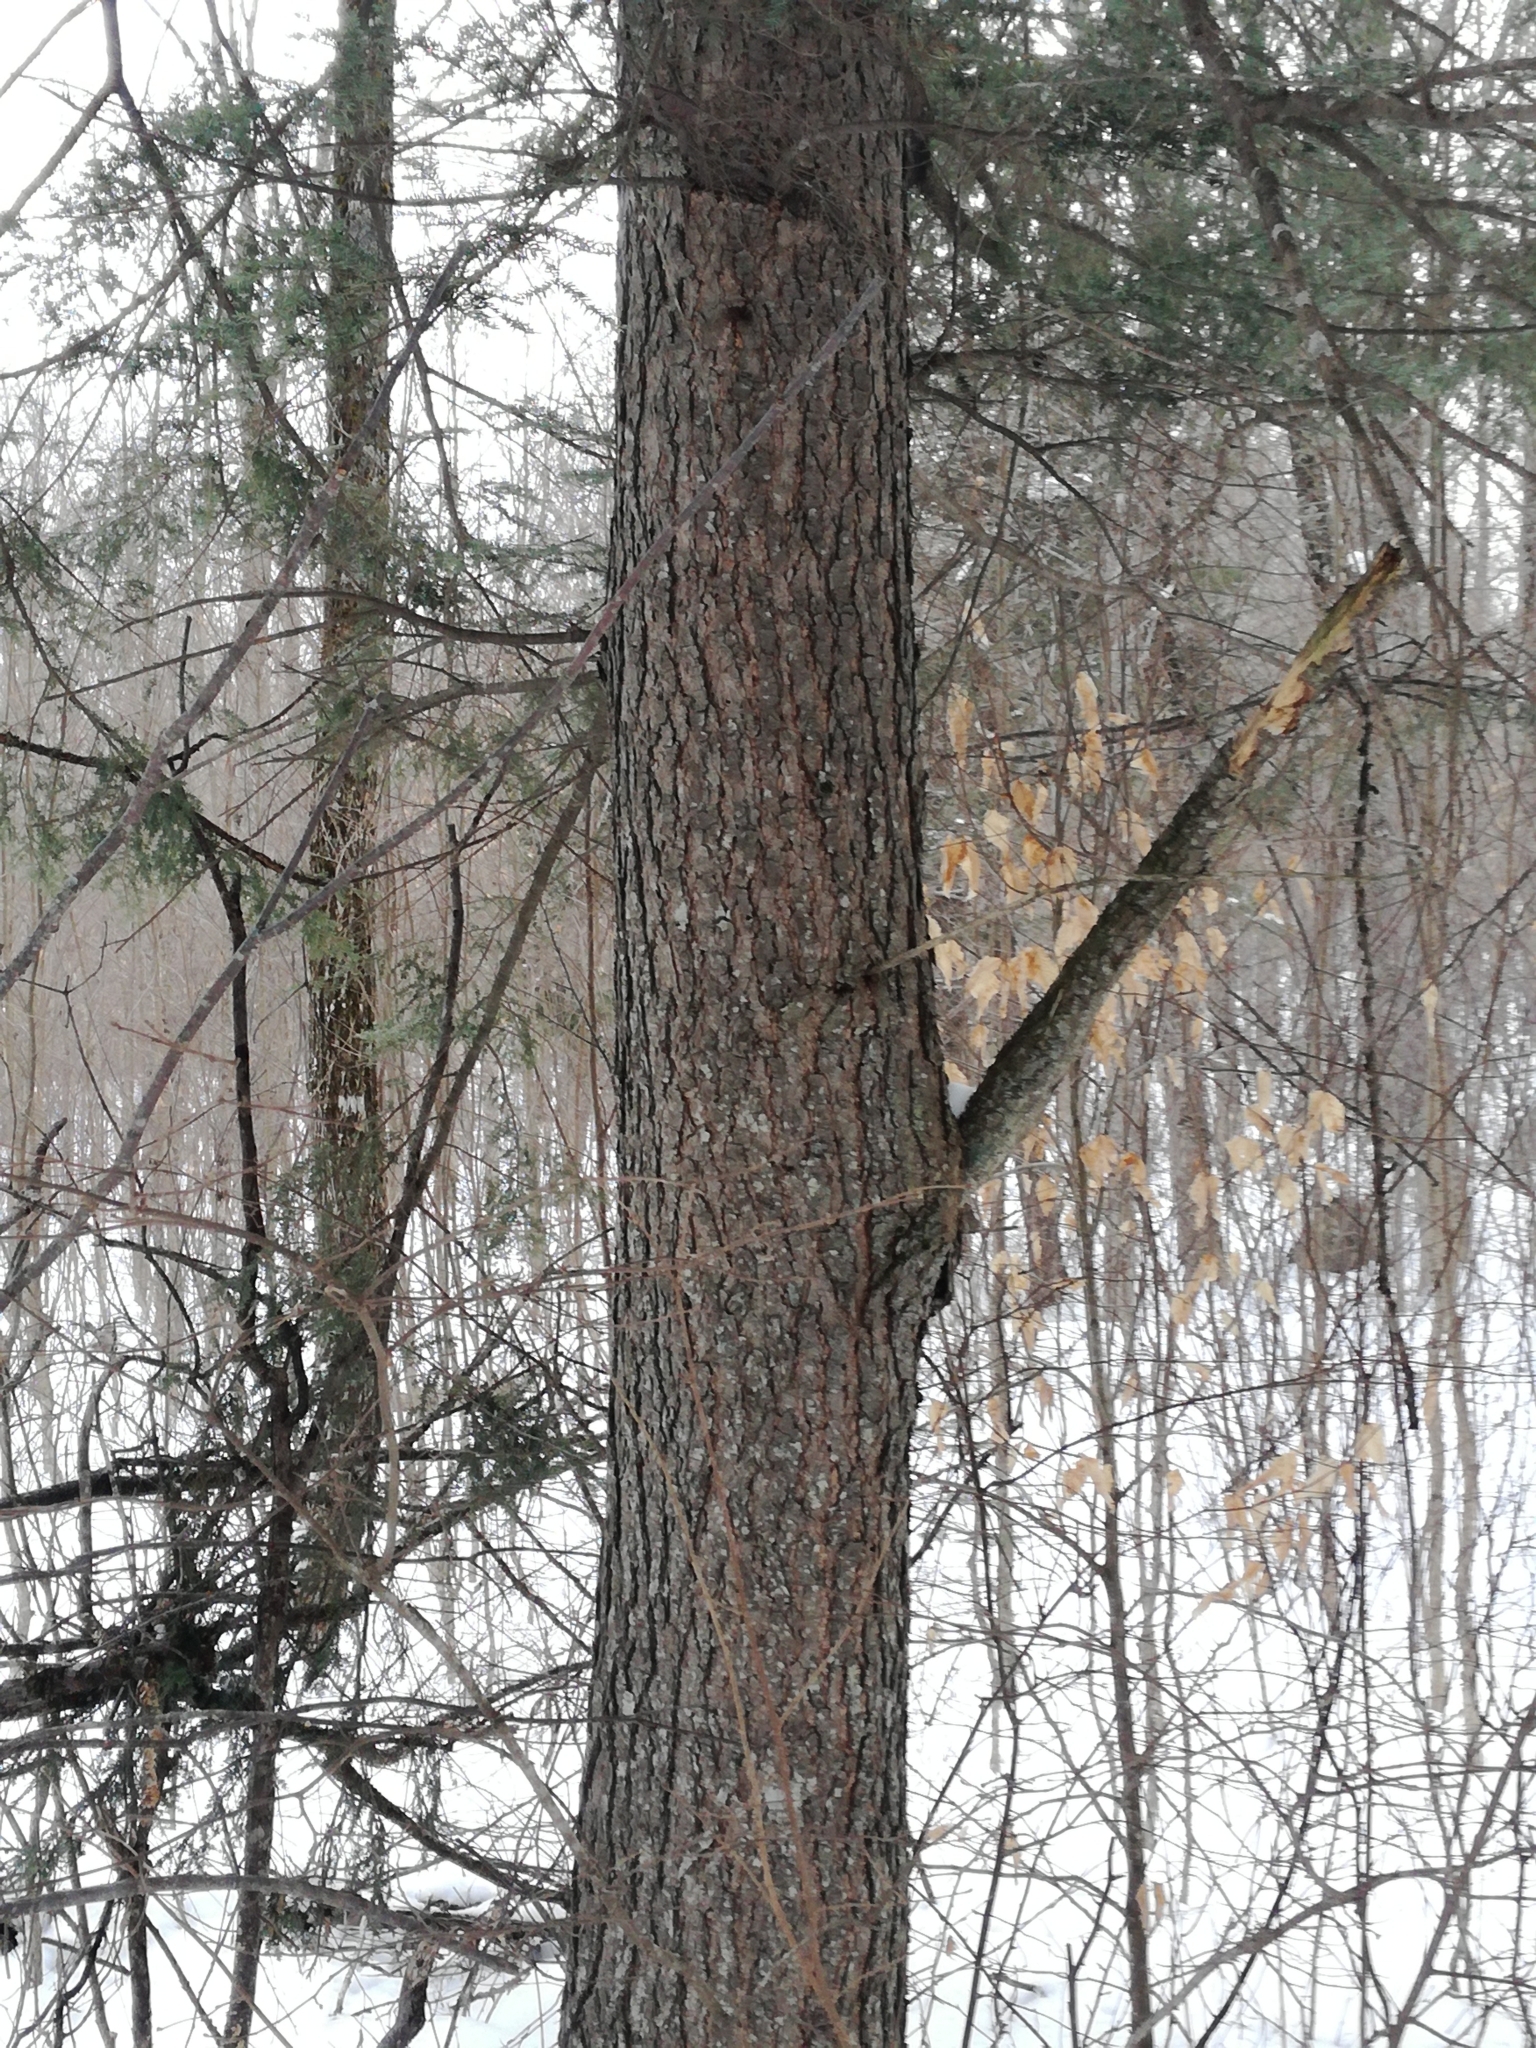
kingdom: Plantae
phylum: Tracheophyta
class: Pinopsida
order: Pinales
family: Pinaceae
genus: Tsuga
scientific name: Tsuga canadensis
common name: Eastern hemlock
